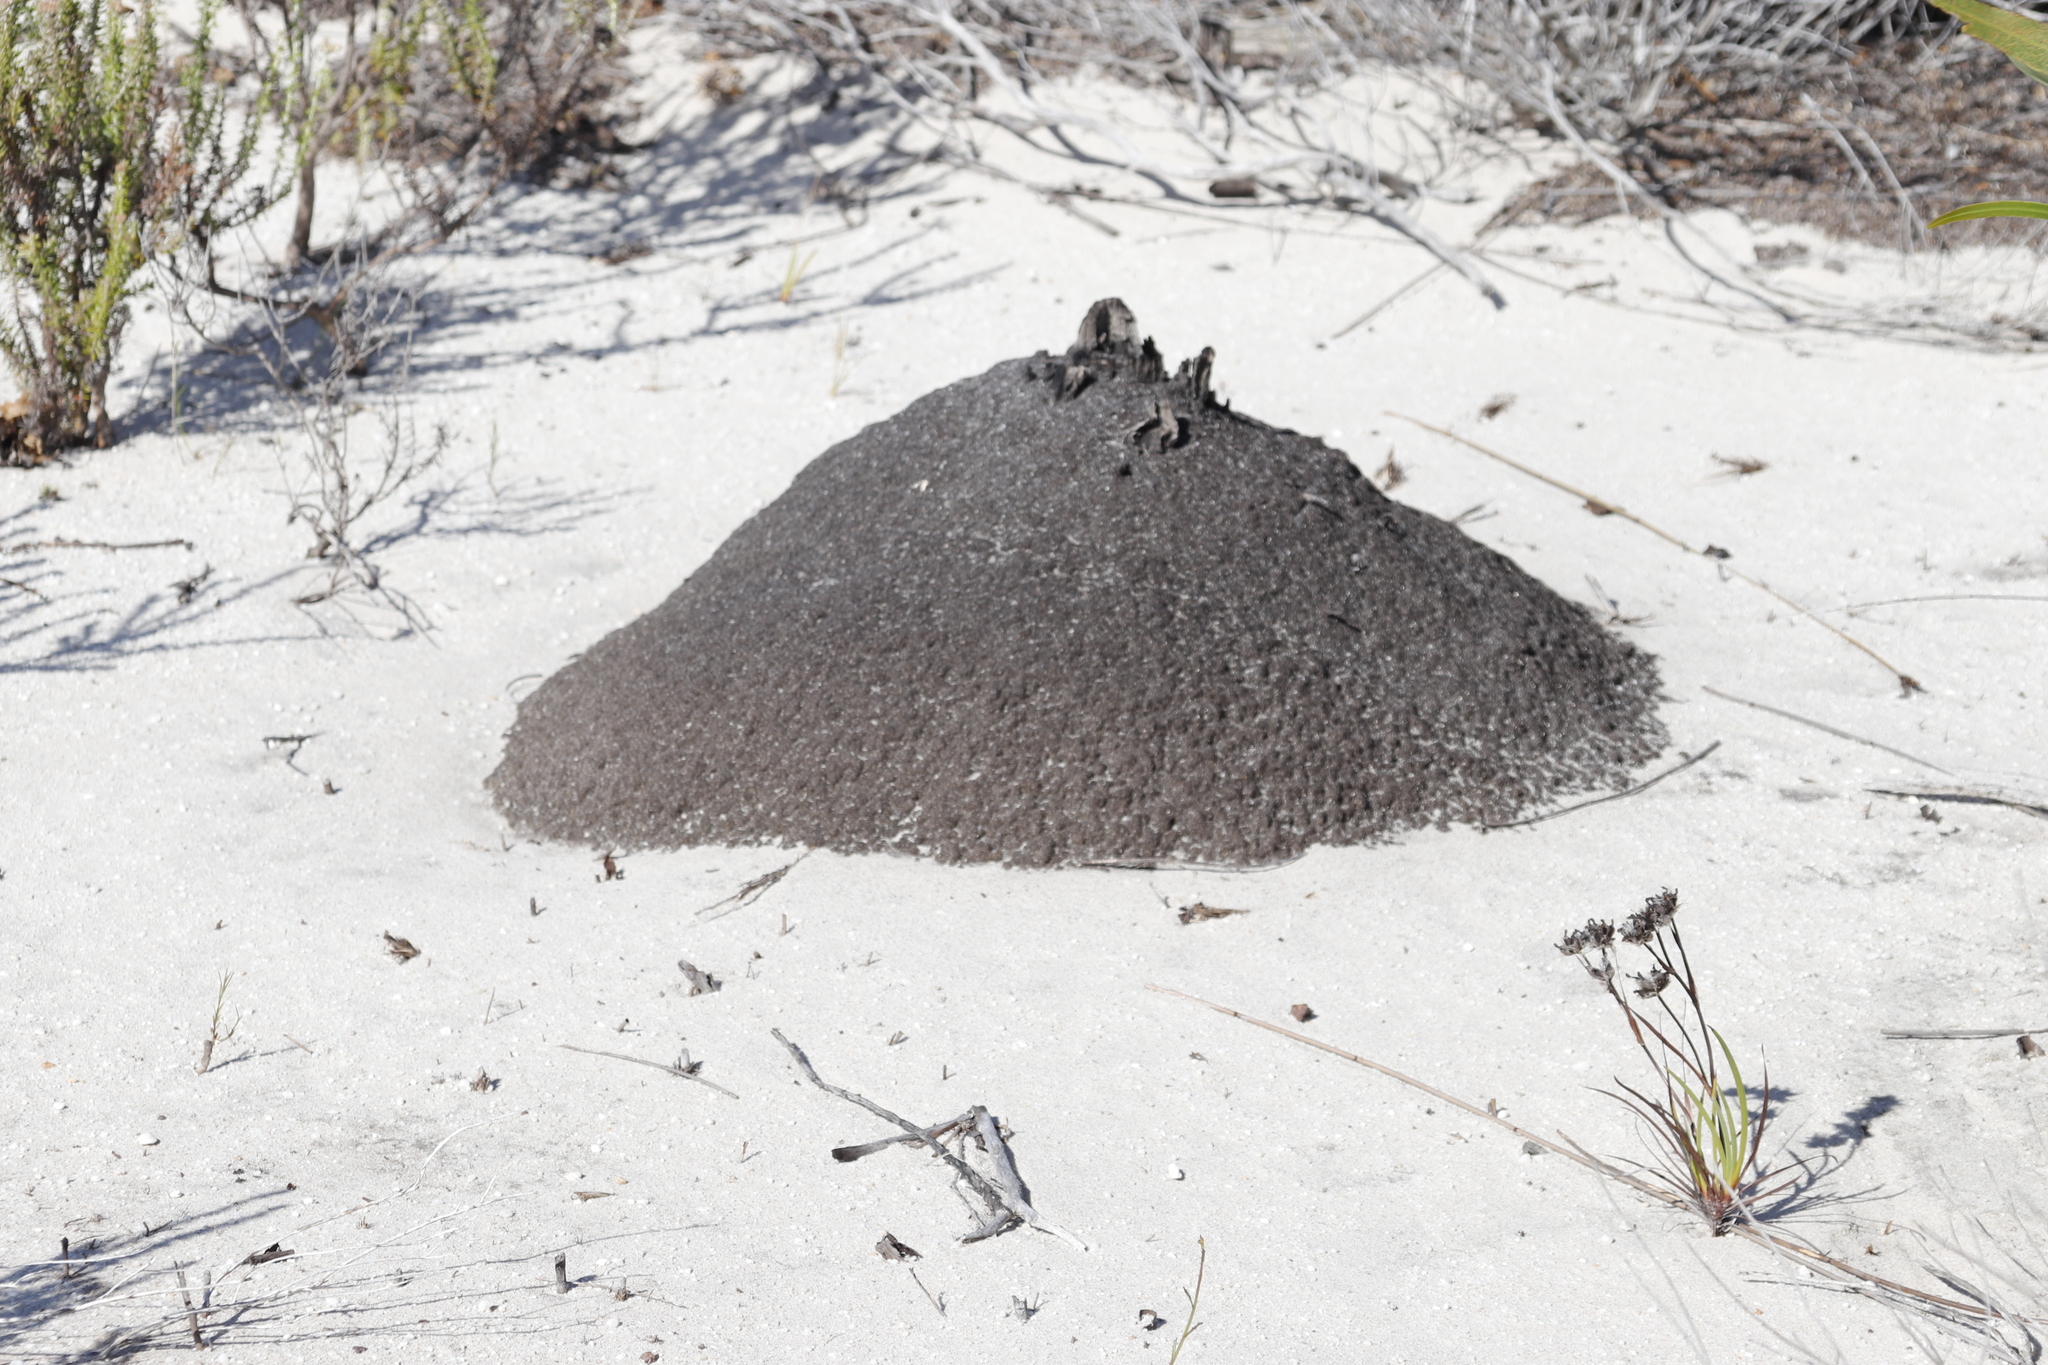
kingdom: Animalia
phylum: Arthropoda
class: Insecta
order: Blattodea
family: Termitidae
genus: Amitermes
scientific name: Amitermes hastatus
